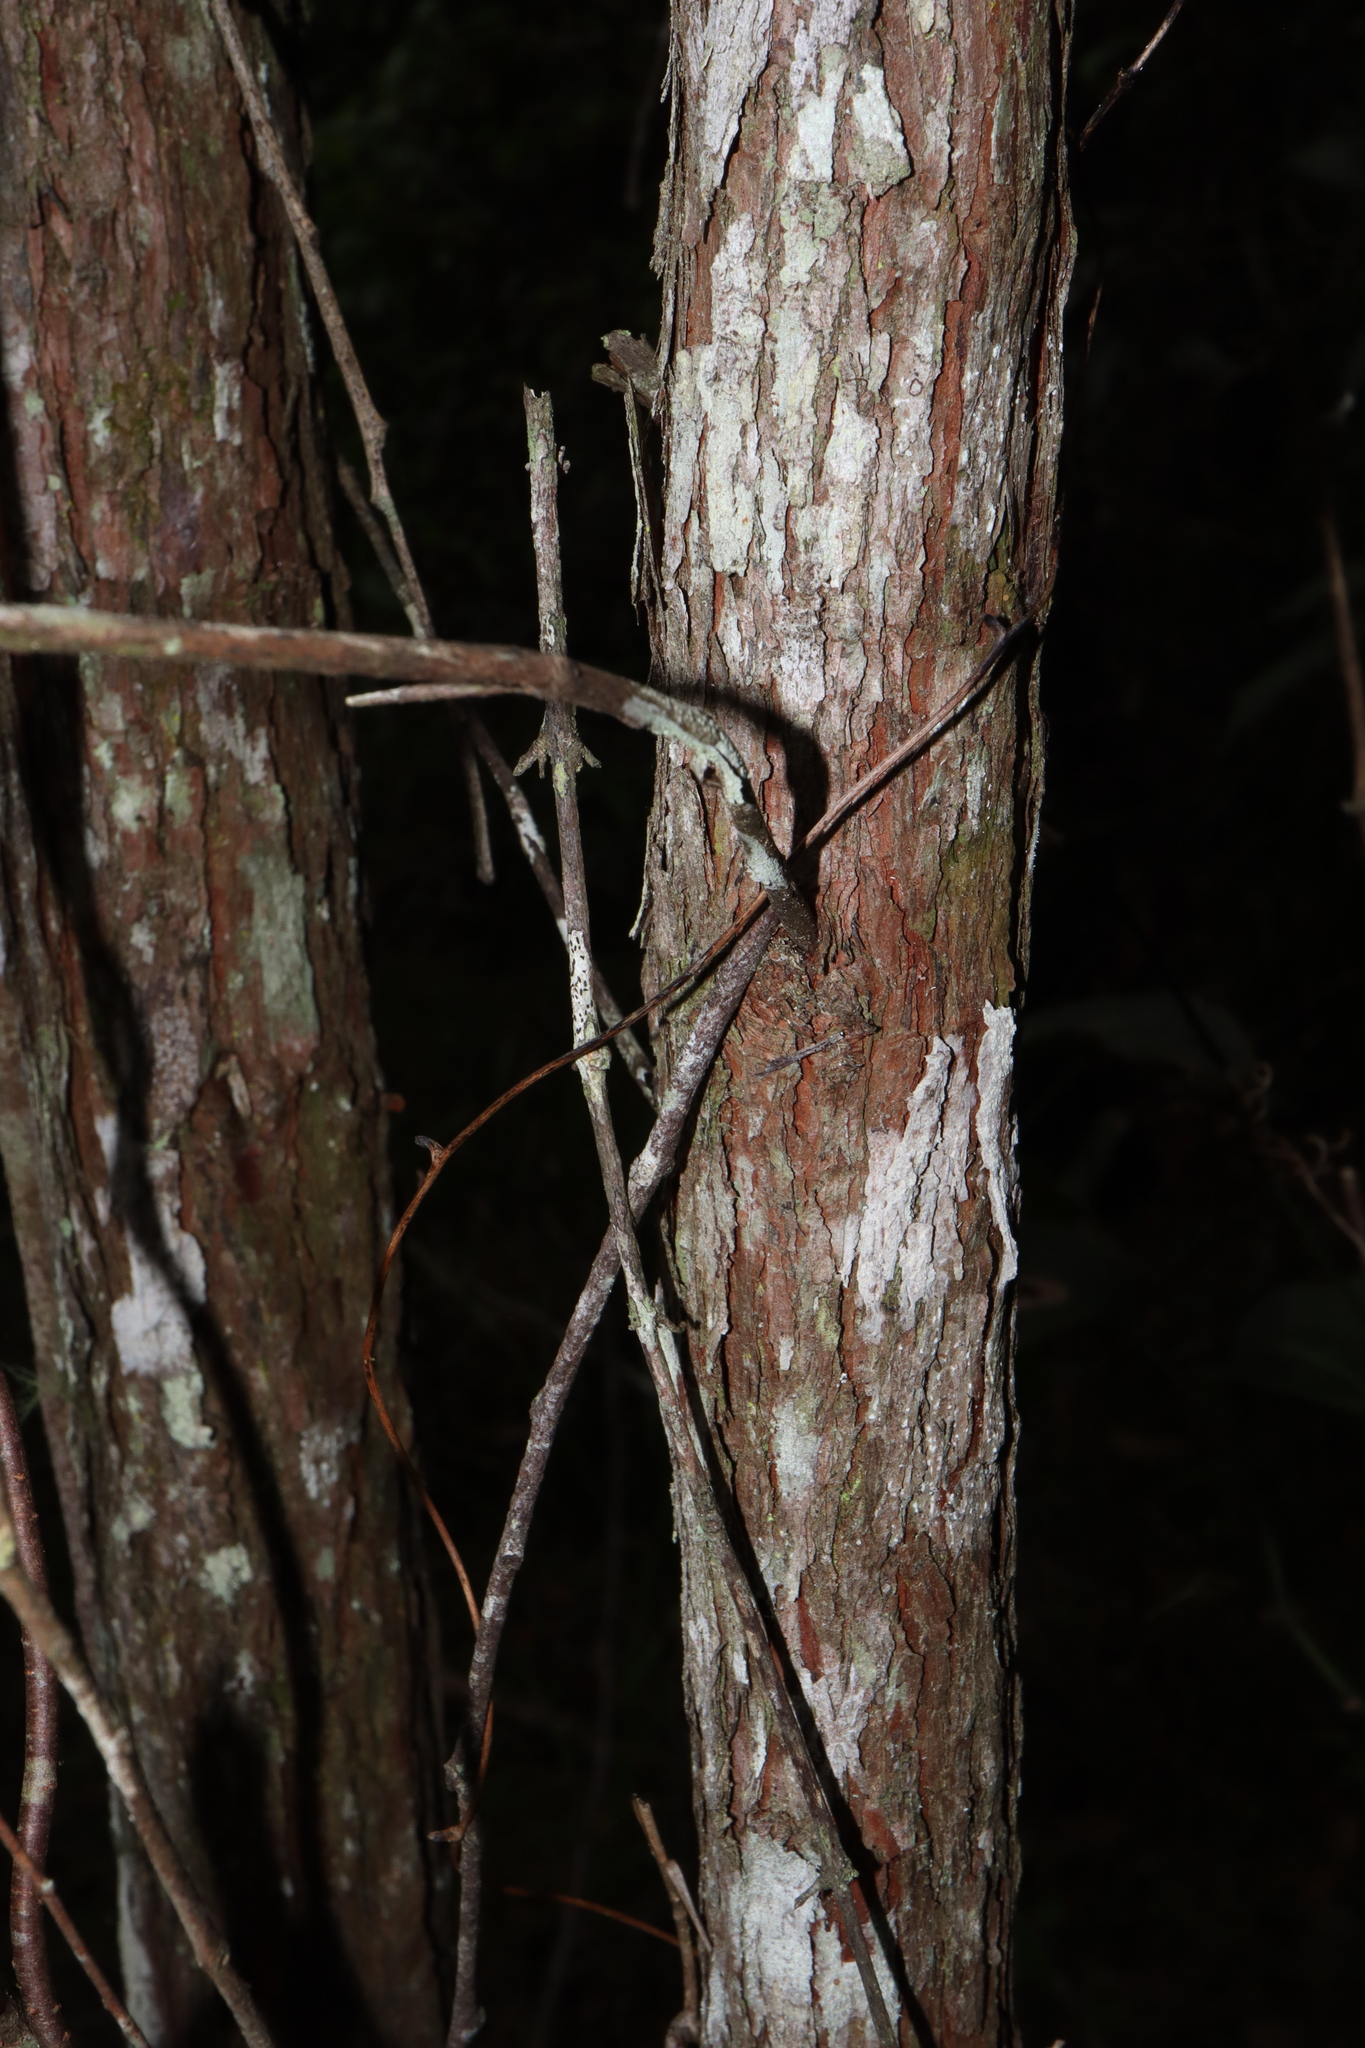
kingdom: Plantae
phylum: Tracheophyta
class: Magnoliopsida
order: Myrtales
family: Myrtaceae
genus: Rhodamnia
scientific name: Rhodamnia rubescens
